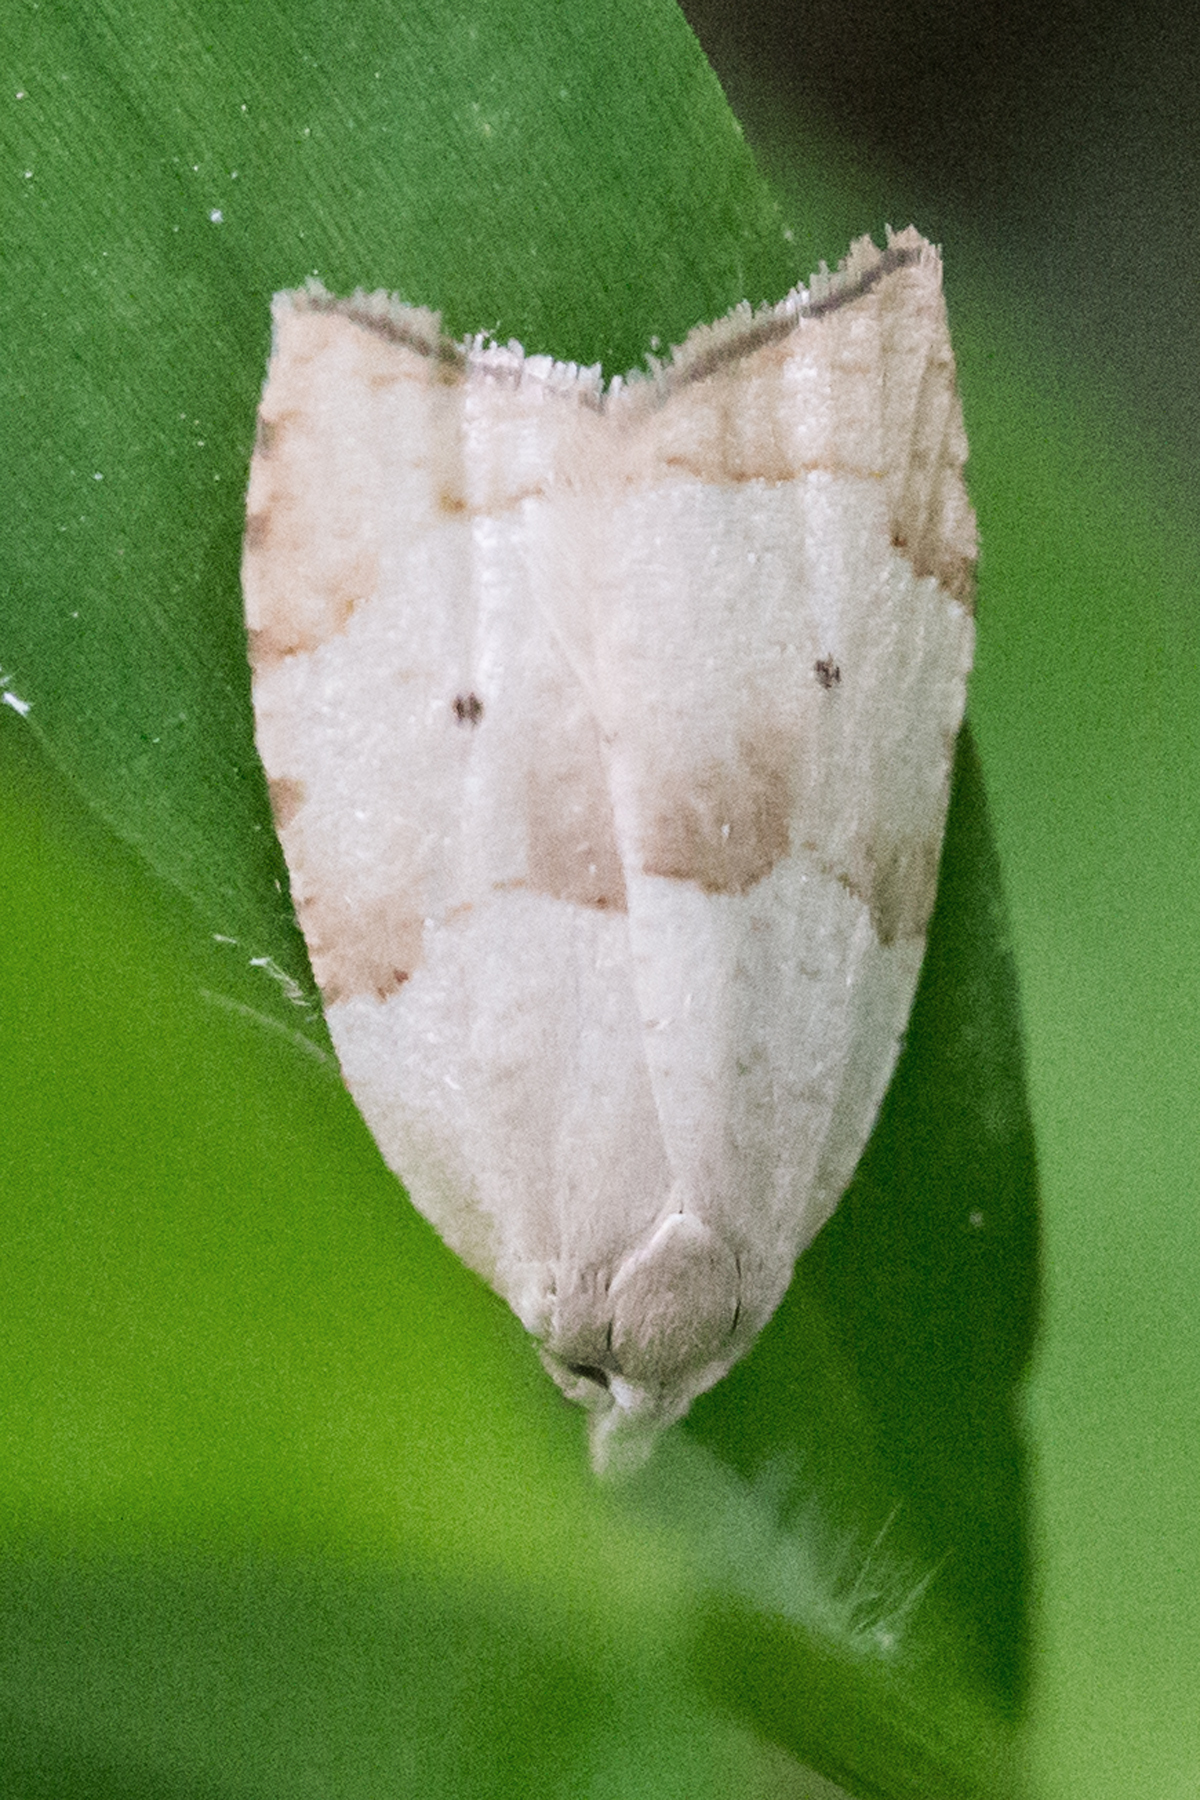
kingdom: Animalia
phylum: Arthropoda
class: Insecta
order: Lepidoptera
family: Tortricidae
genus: Coelostathma
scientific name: Coelostathma discopunctana
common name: Batman moth
